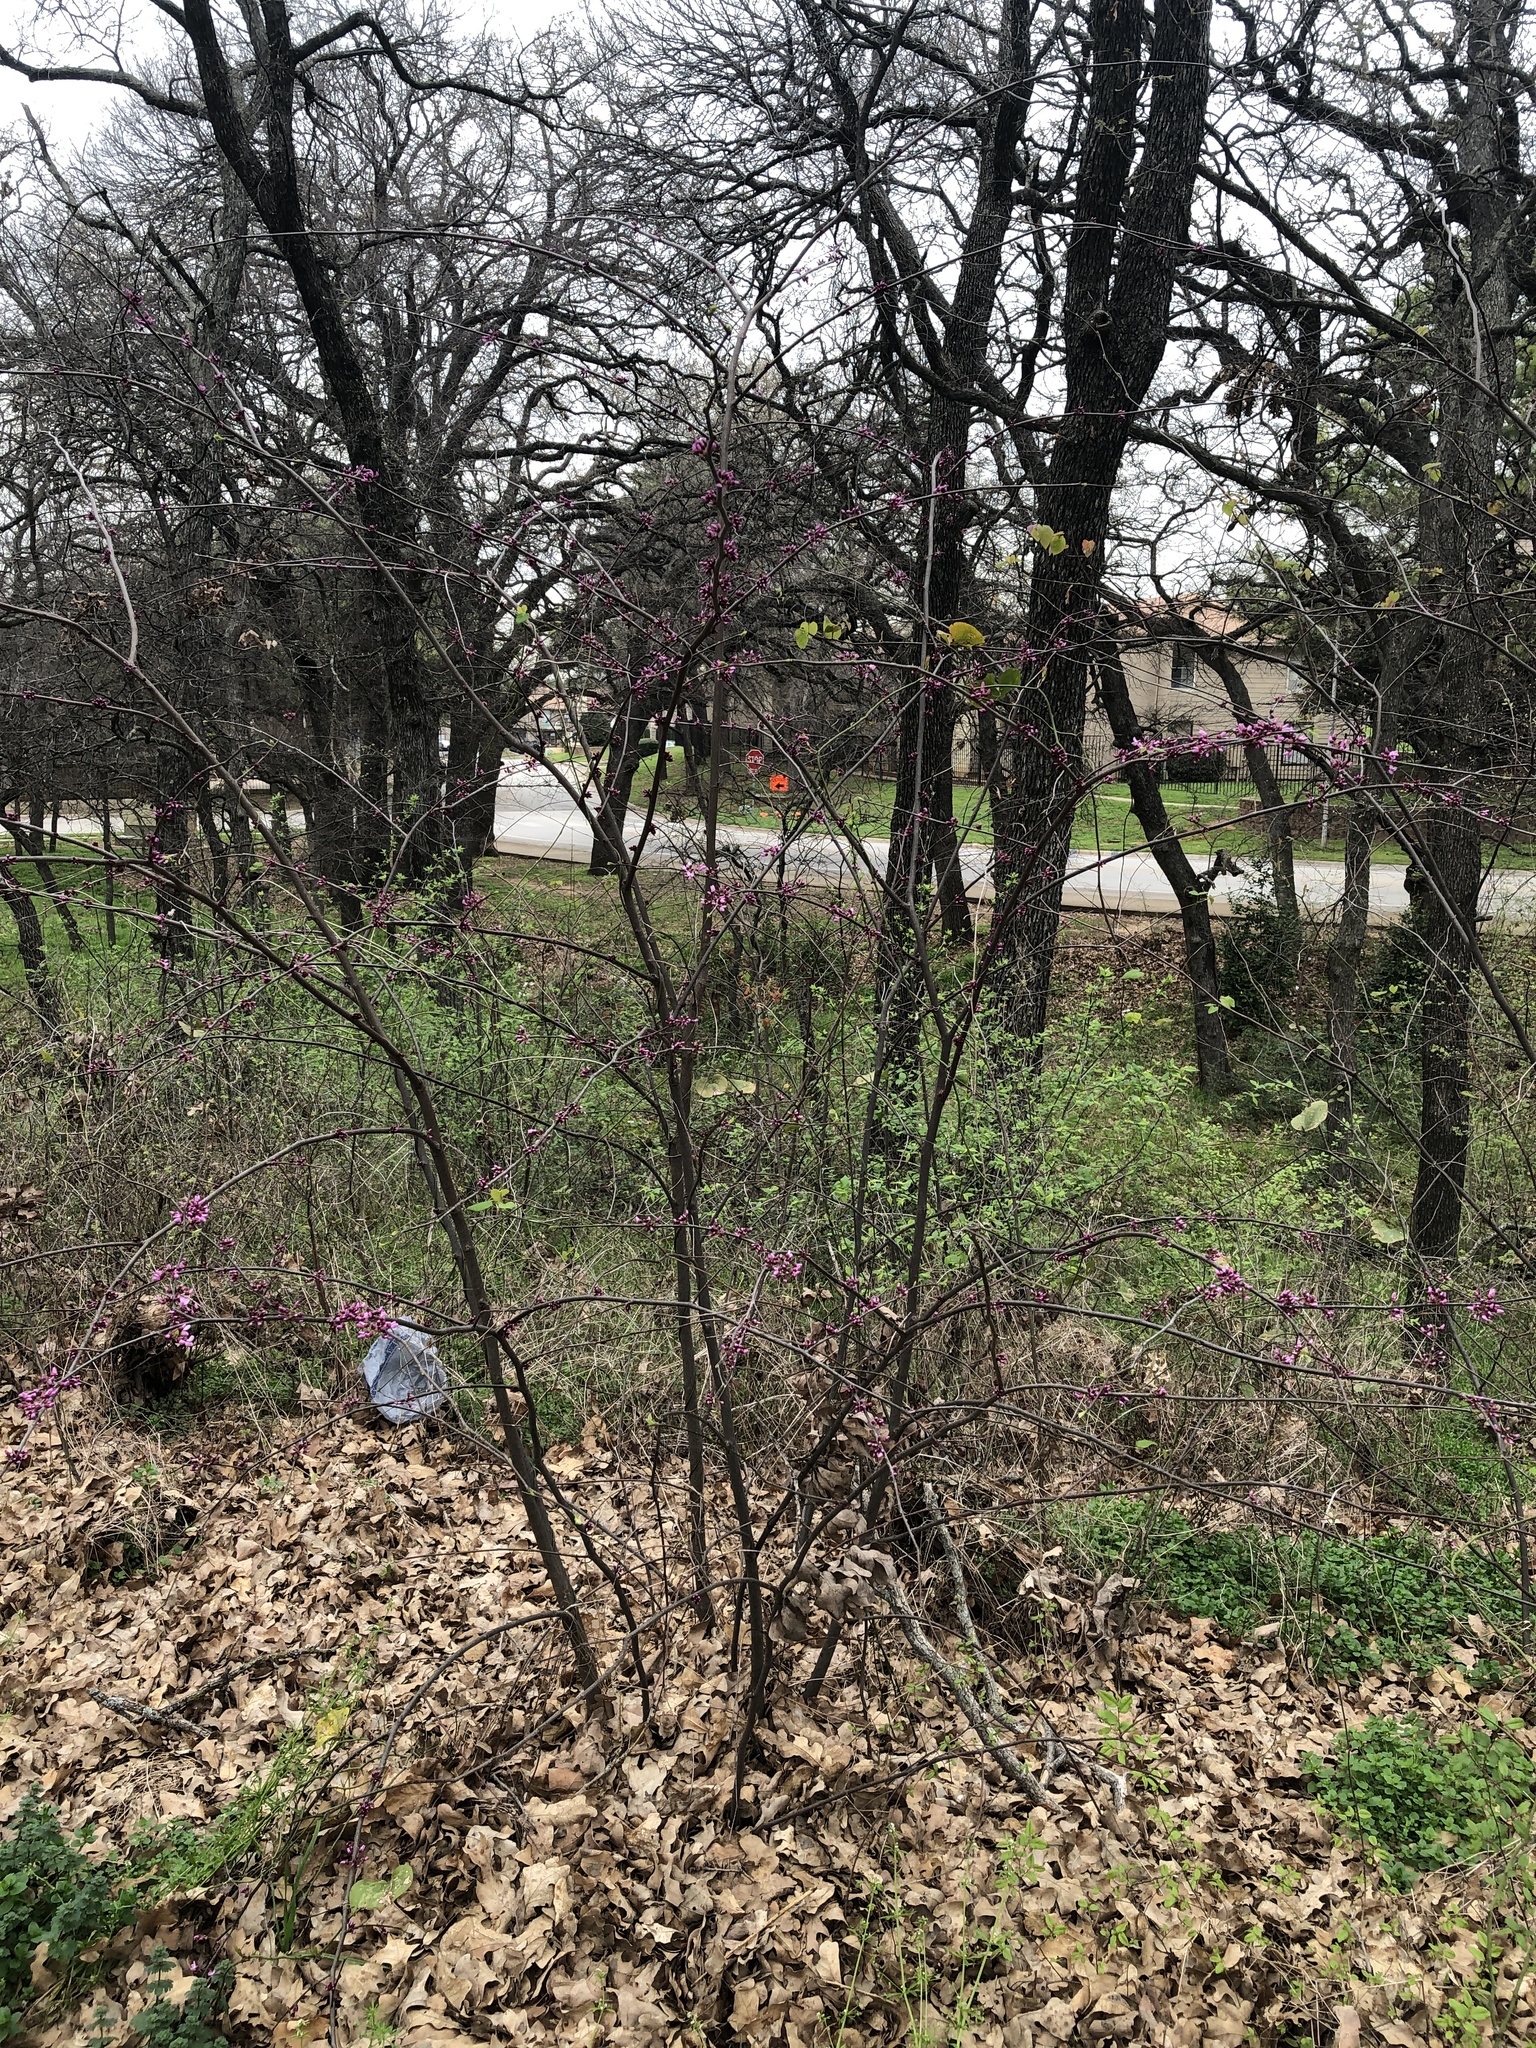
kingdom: Plantae
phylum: Tracheophyta
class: Magnoliopsida
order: Fabales
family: Fabaceae
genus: Cercis
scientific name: Cercis canadensis
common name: Eastern redbud
